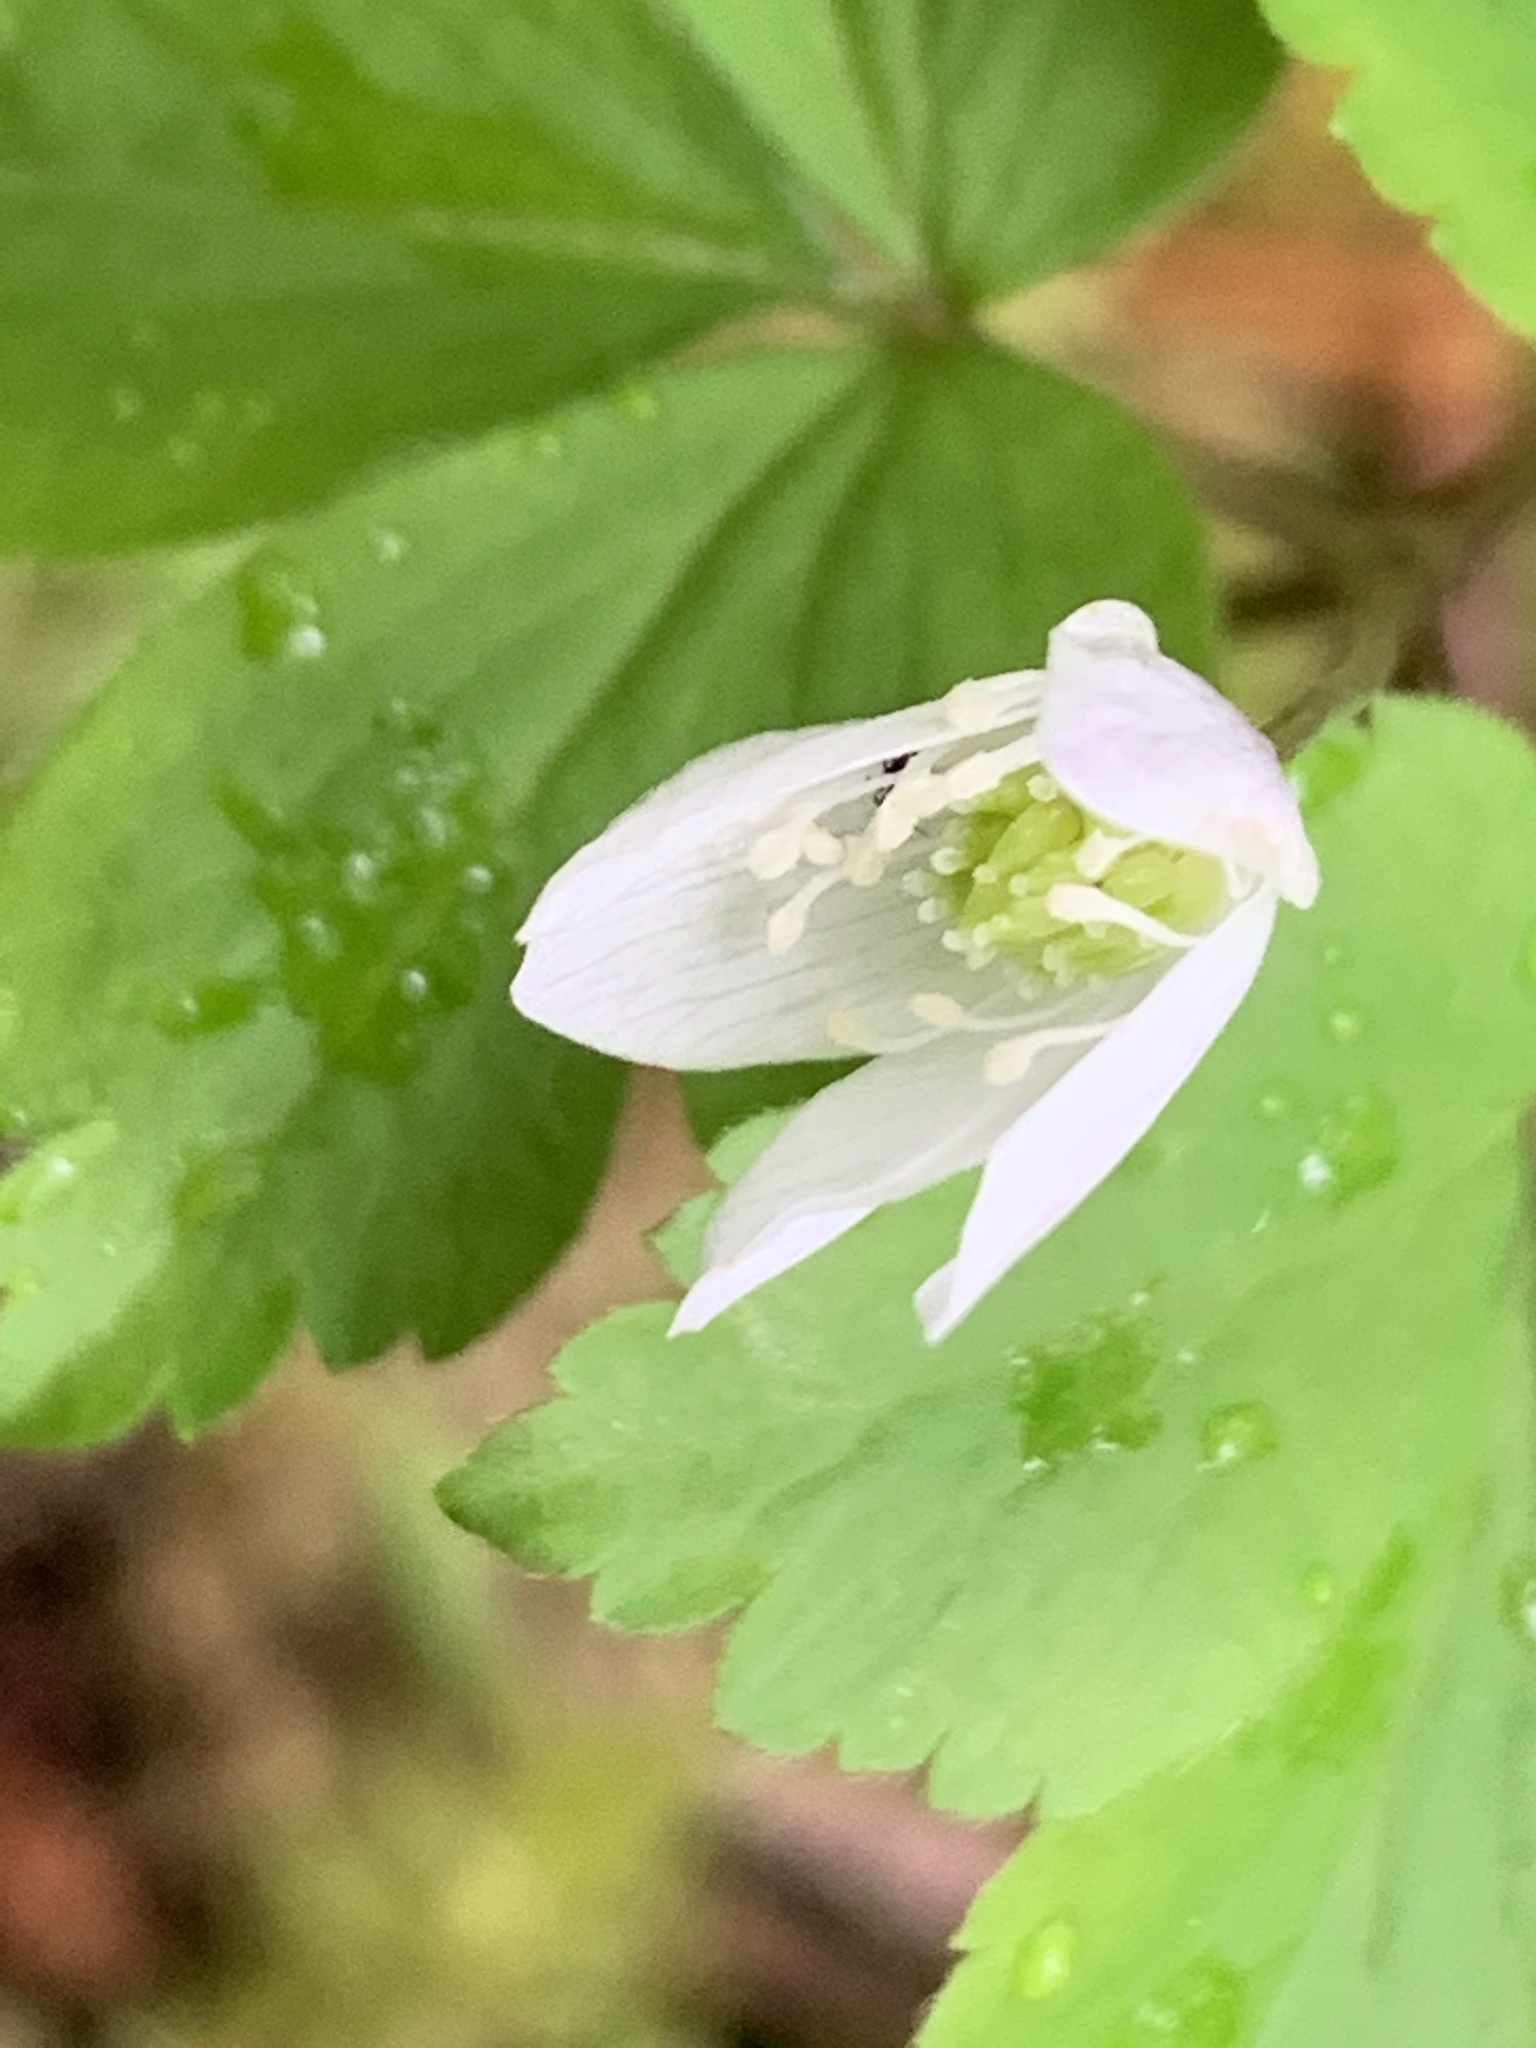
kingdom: Plantae
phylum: Tracheophyta
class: Magnoliopsida
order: Ranunculales
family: Ranunculaceae
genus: Anemone
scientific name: Anemone
